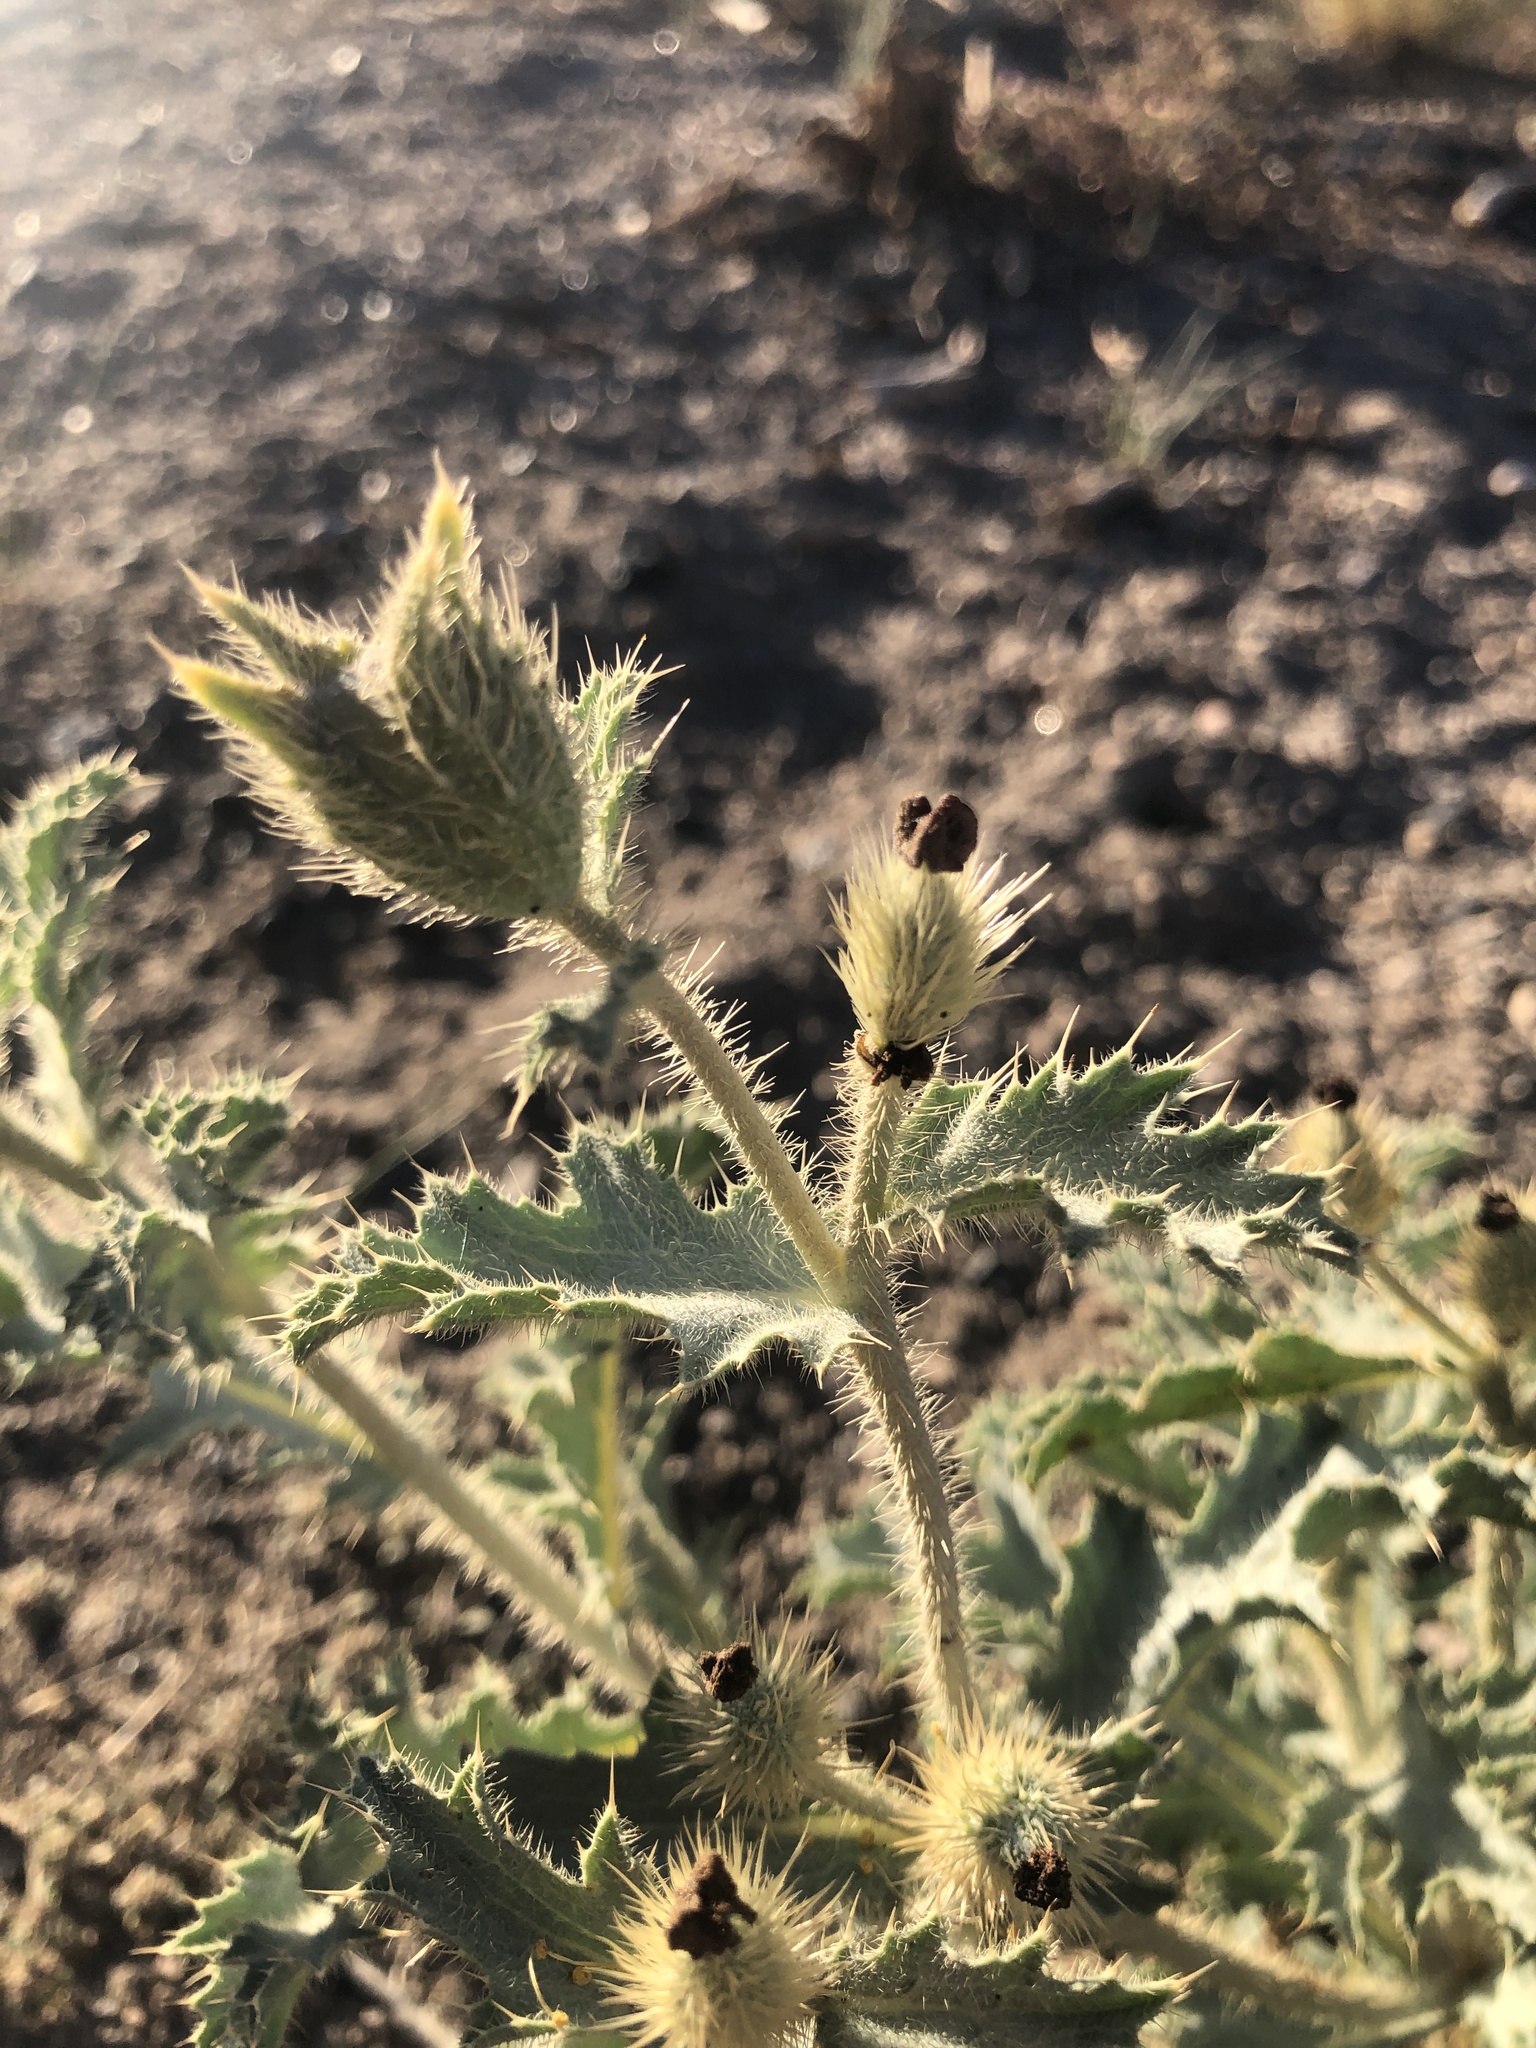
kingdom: Plantae
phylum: Tracheophyta
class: Magnoliopsida
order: Ranunculales
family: Papaveraceae
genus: Argemone
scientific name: Argemone munita
